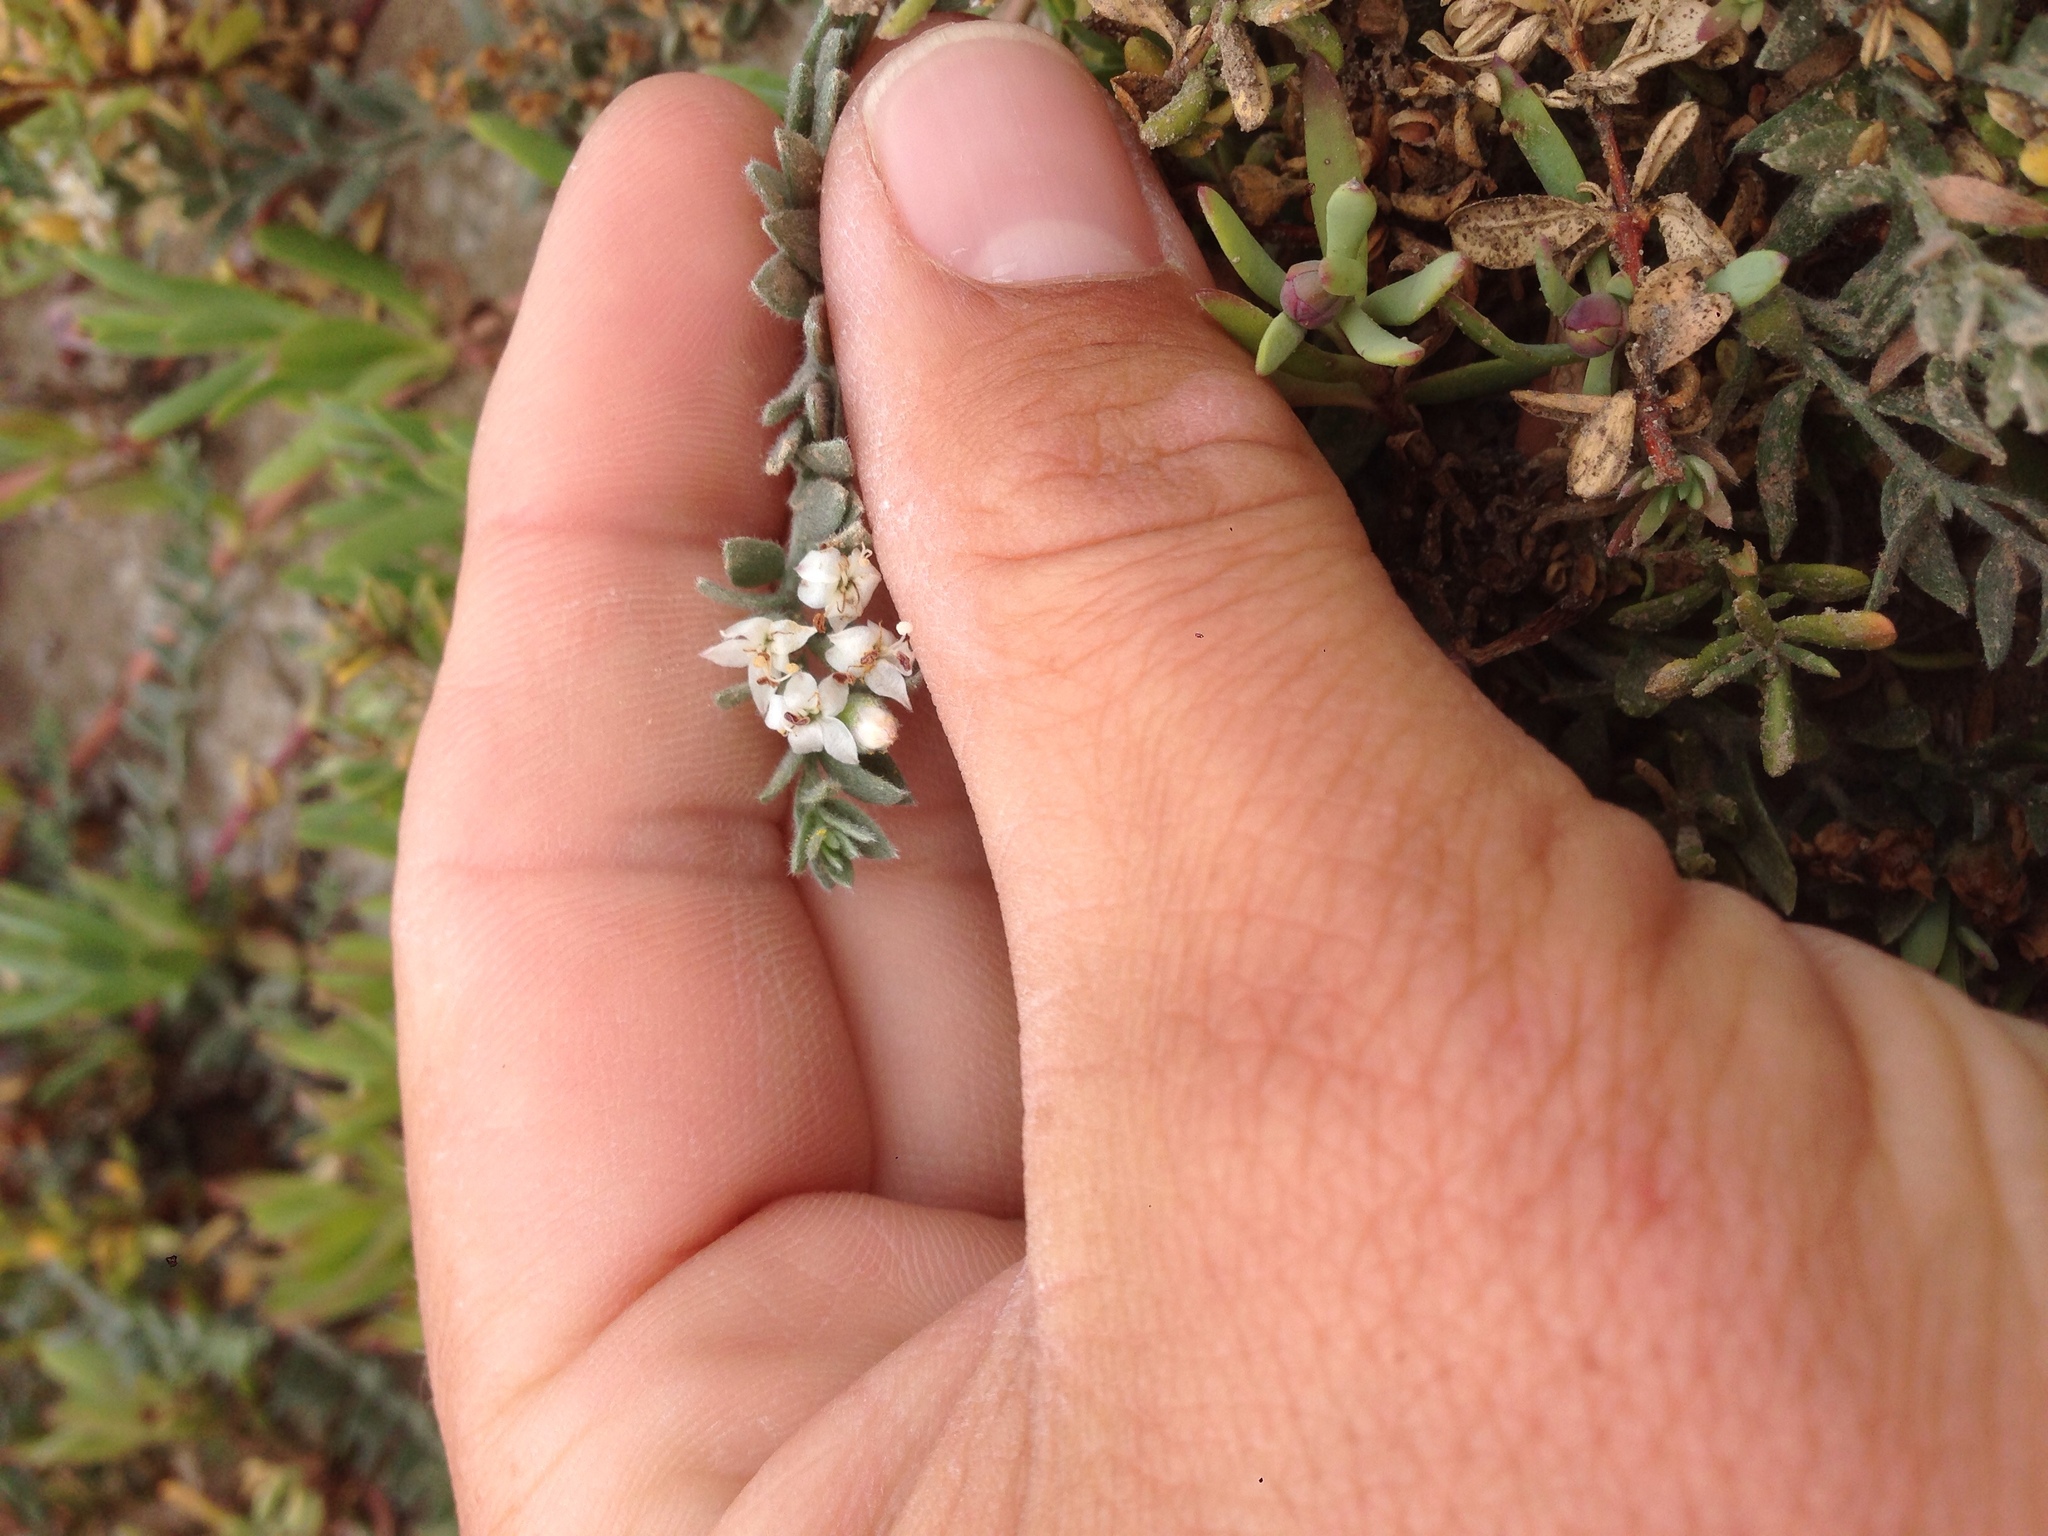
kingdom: Plantae
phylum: Tracheophyta
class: Magnoliopsida
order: Solanales
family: Convolvulaceae
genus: Cressa
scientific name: Cressa truxillensis
